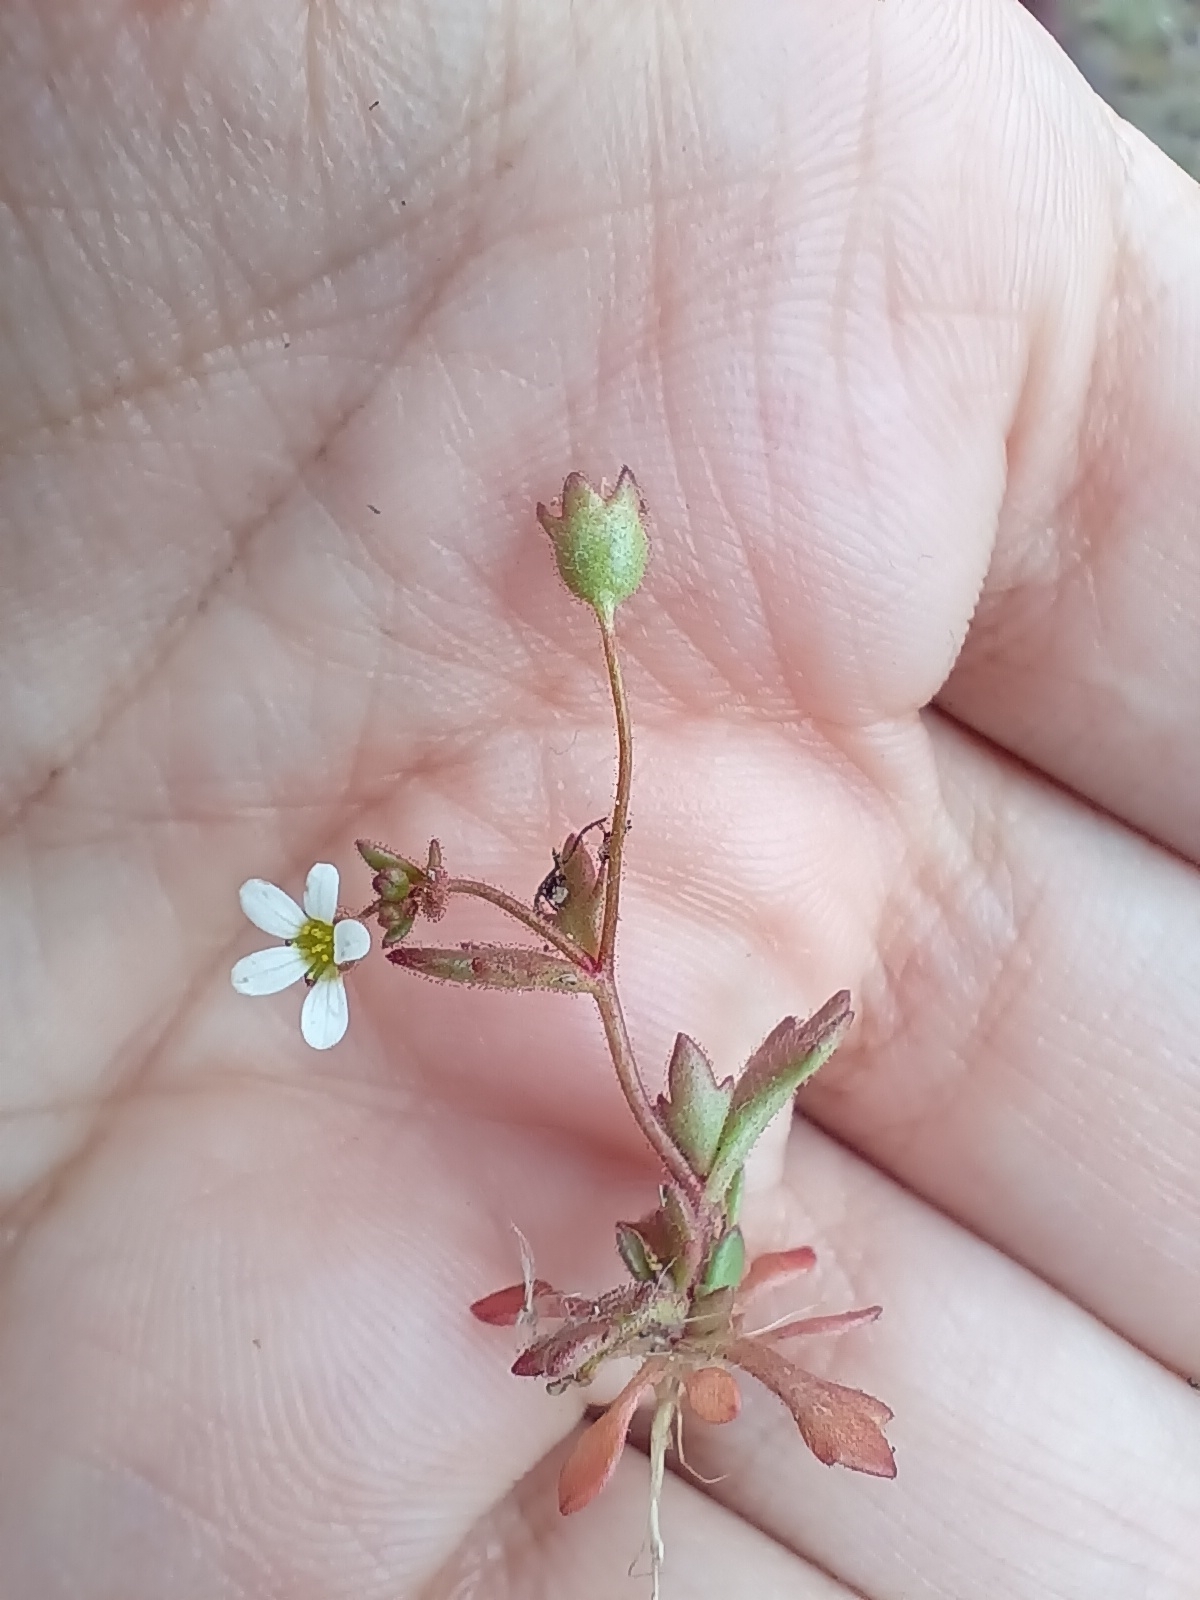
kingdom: Plantae
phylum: Tracheophyta
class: Magnoliopsida
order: Saxifragales
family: Saxifragaceae
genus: Saxifraga
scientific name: Saxifraga tridactylites
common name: Rue-leaved saxifrage
